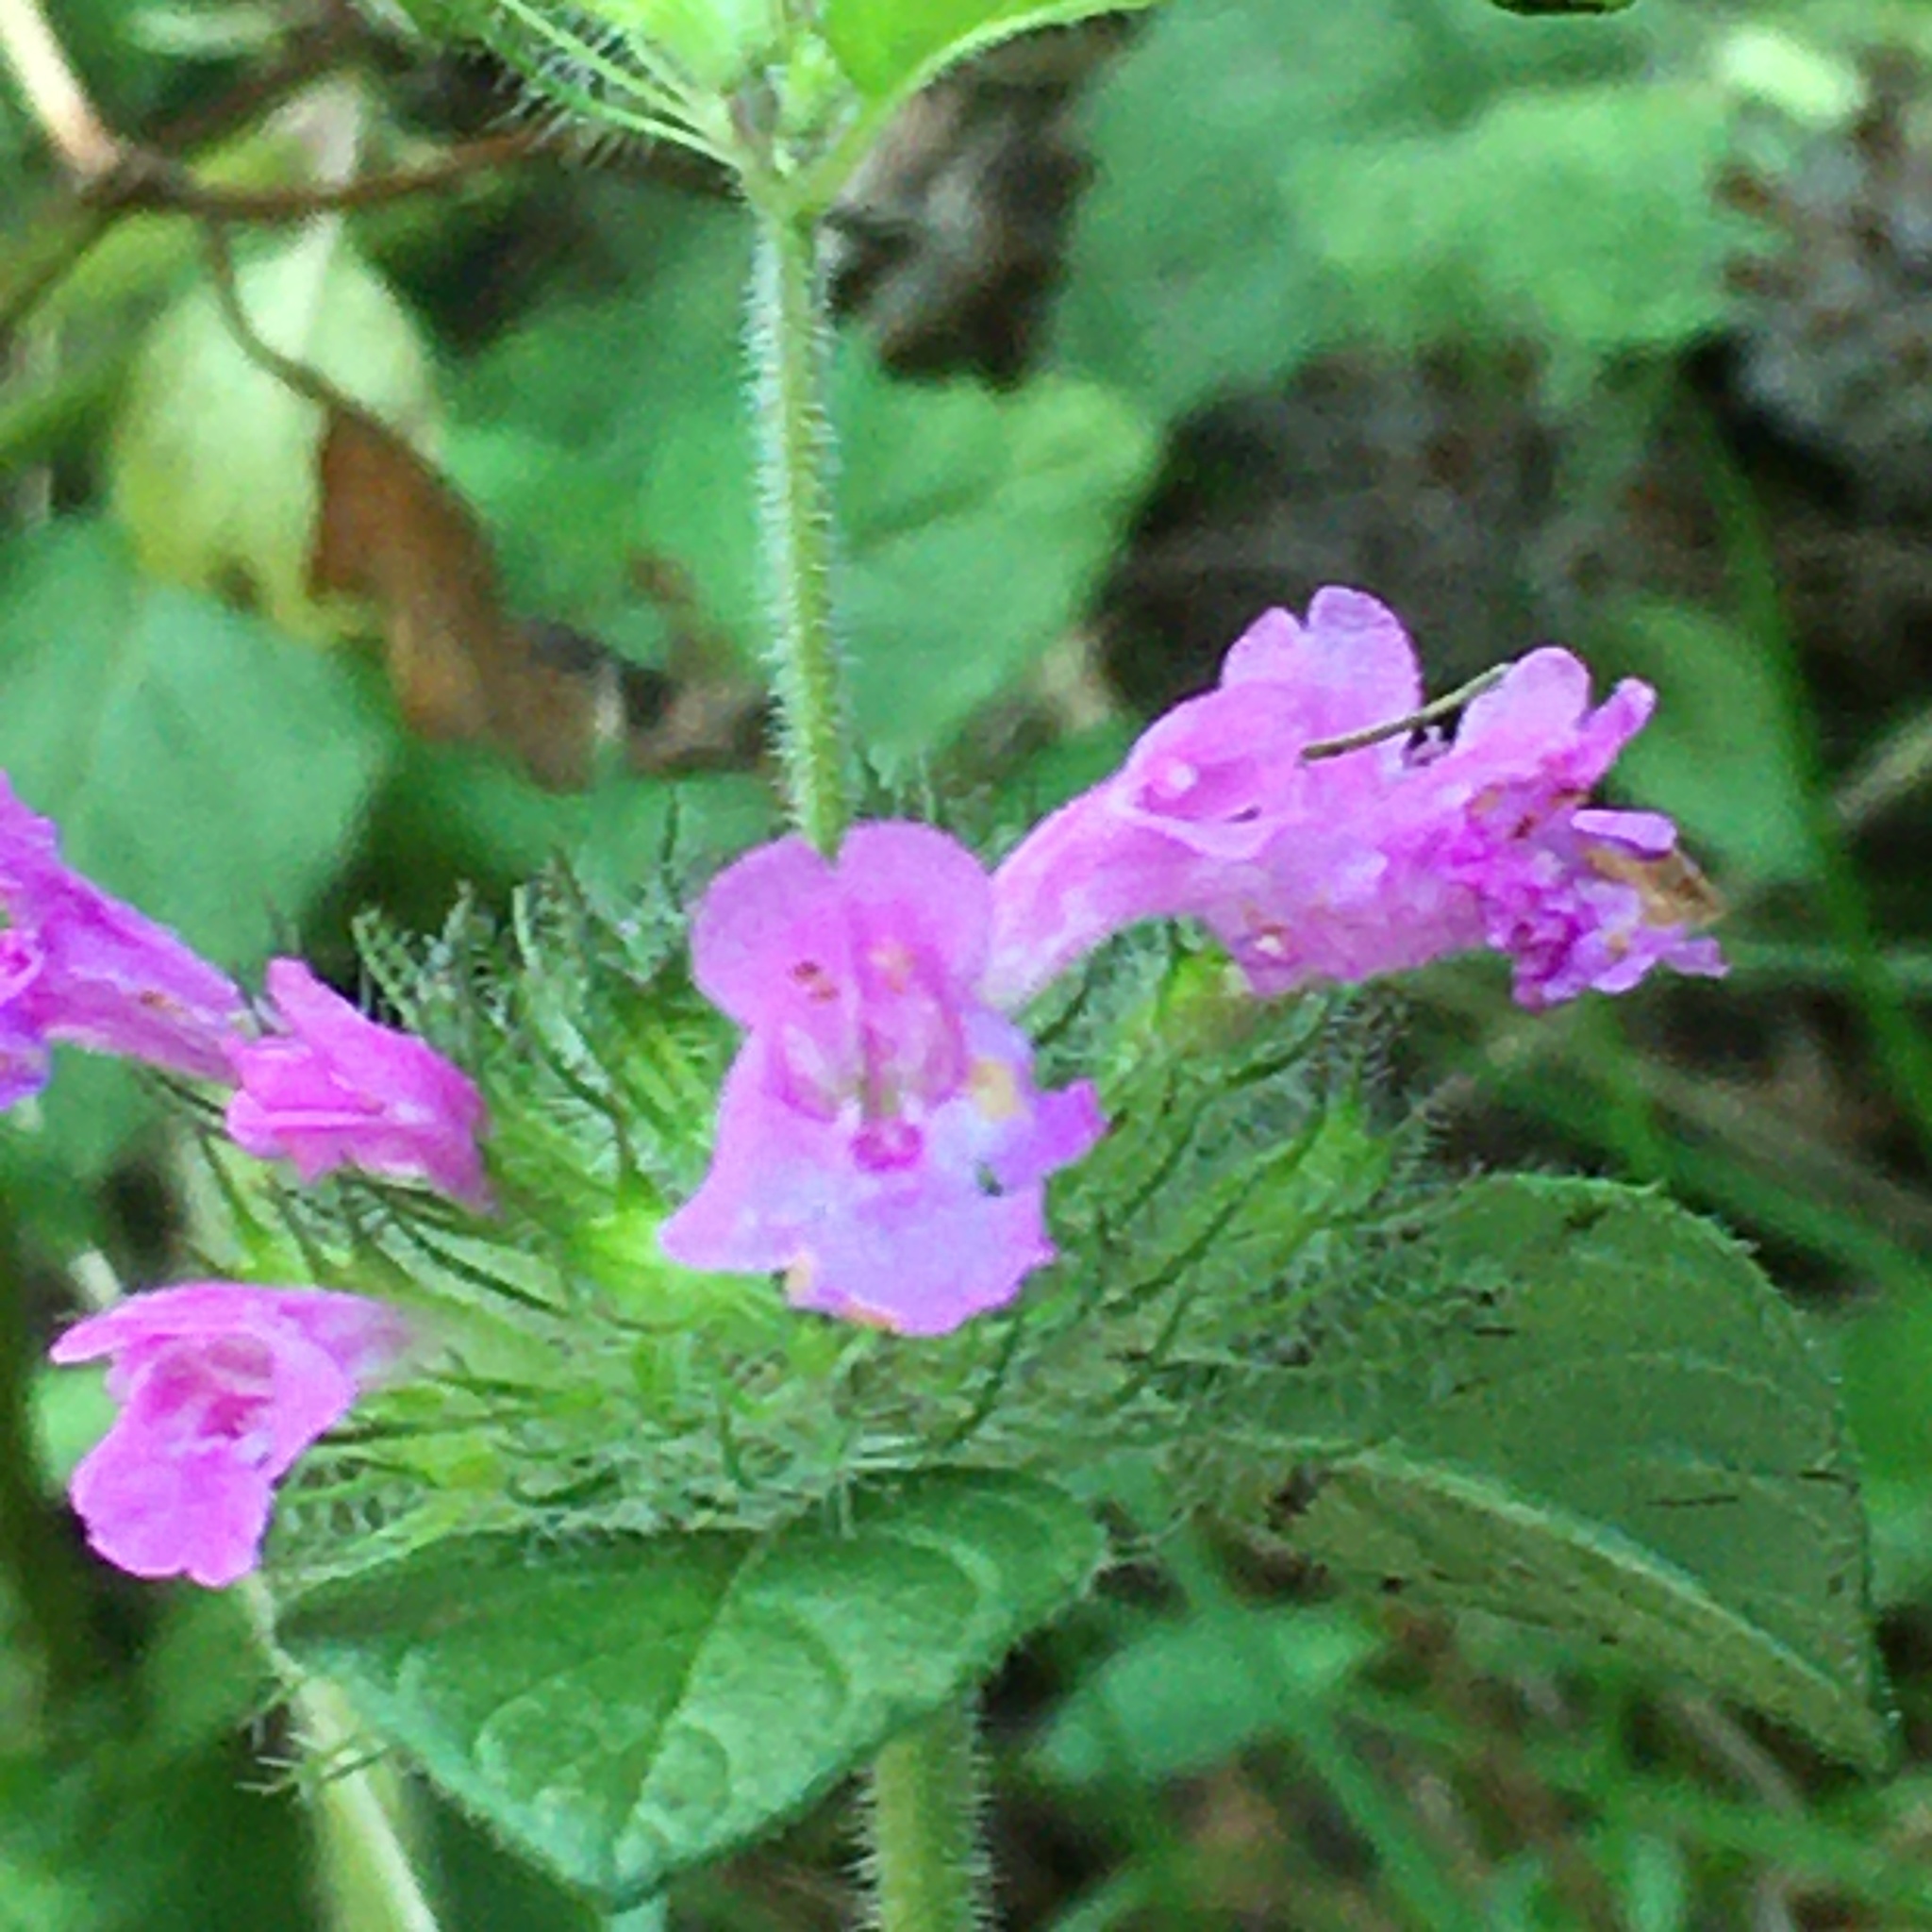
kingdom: Plantae
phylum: Tracheophyta
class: Magnoliopsida
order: Lamiales
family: Lamiaceae
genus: Clinopodium
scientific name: Clinopodium vulgare
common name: Wild basil
